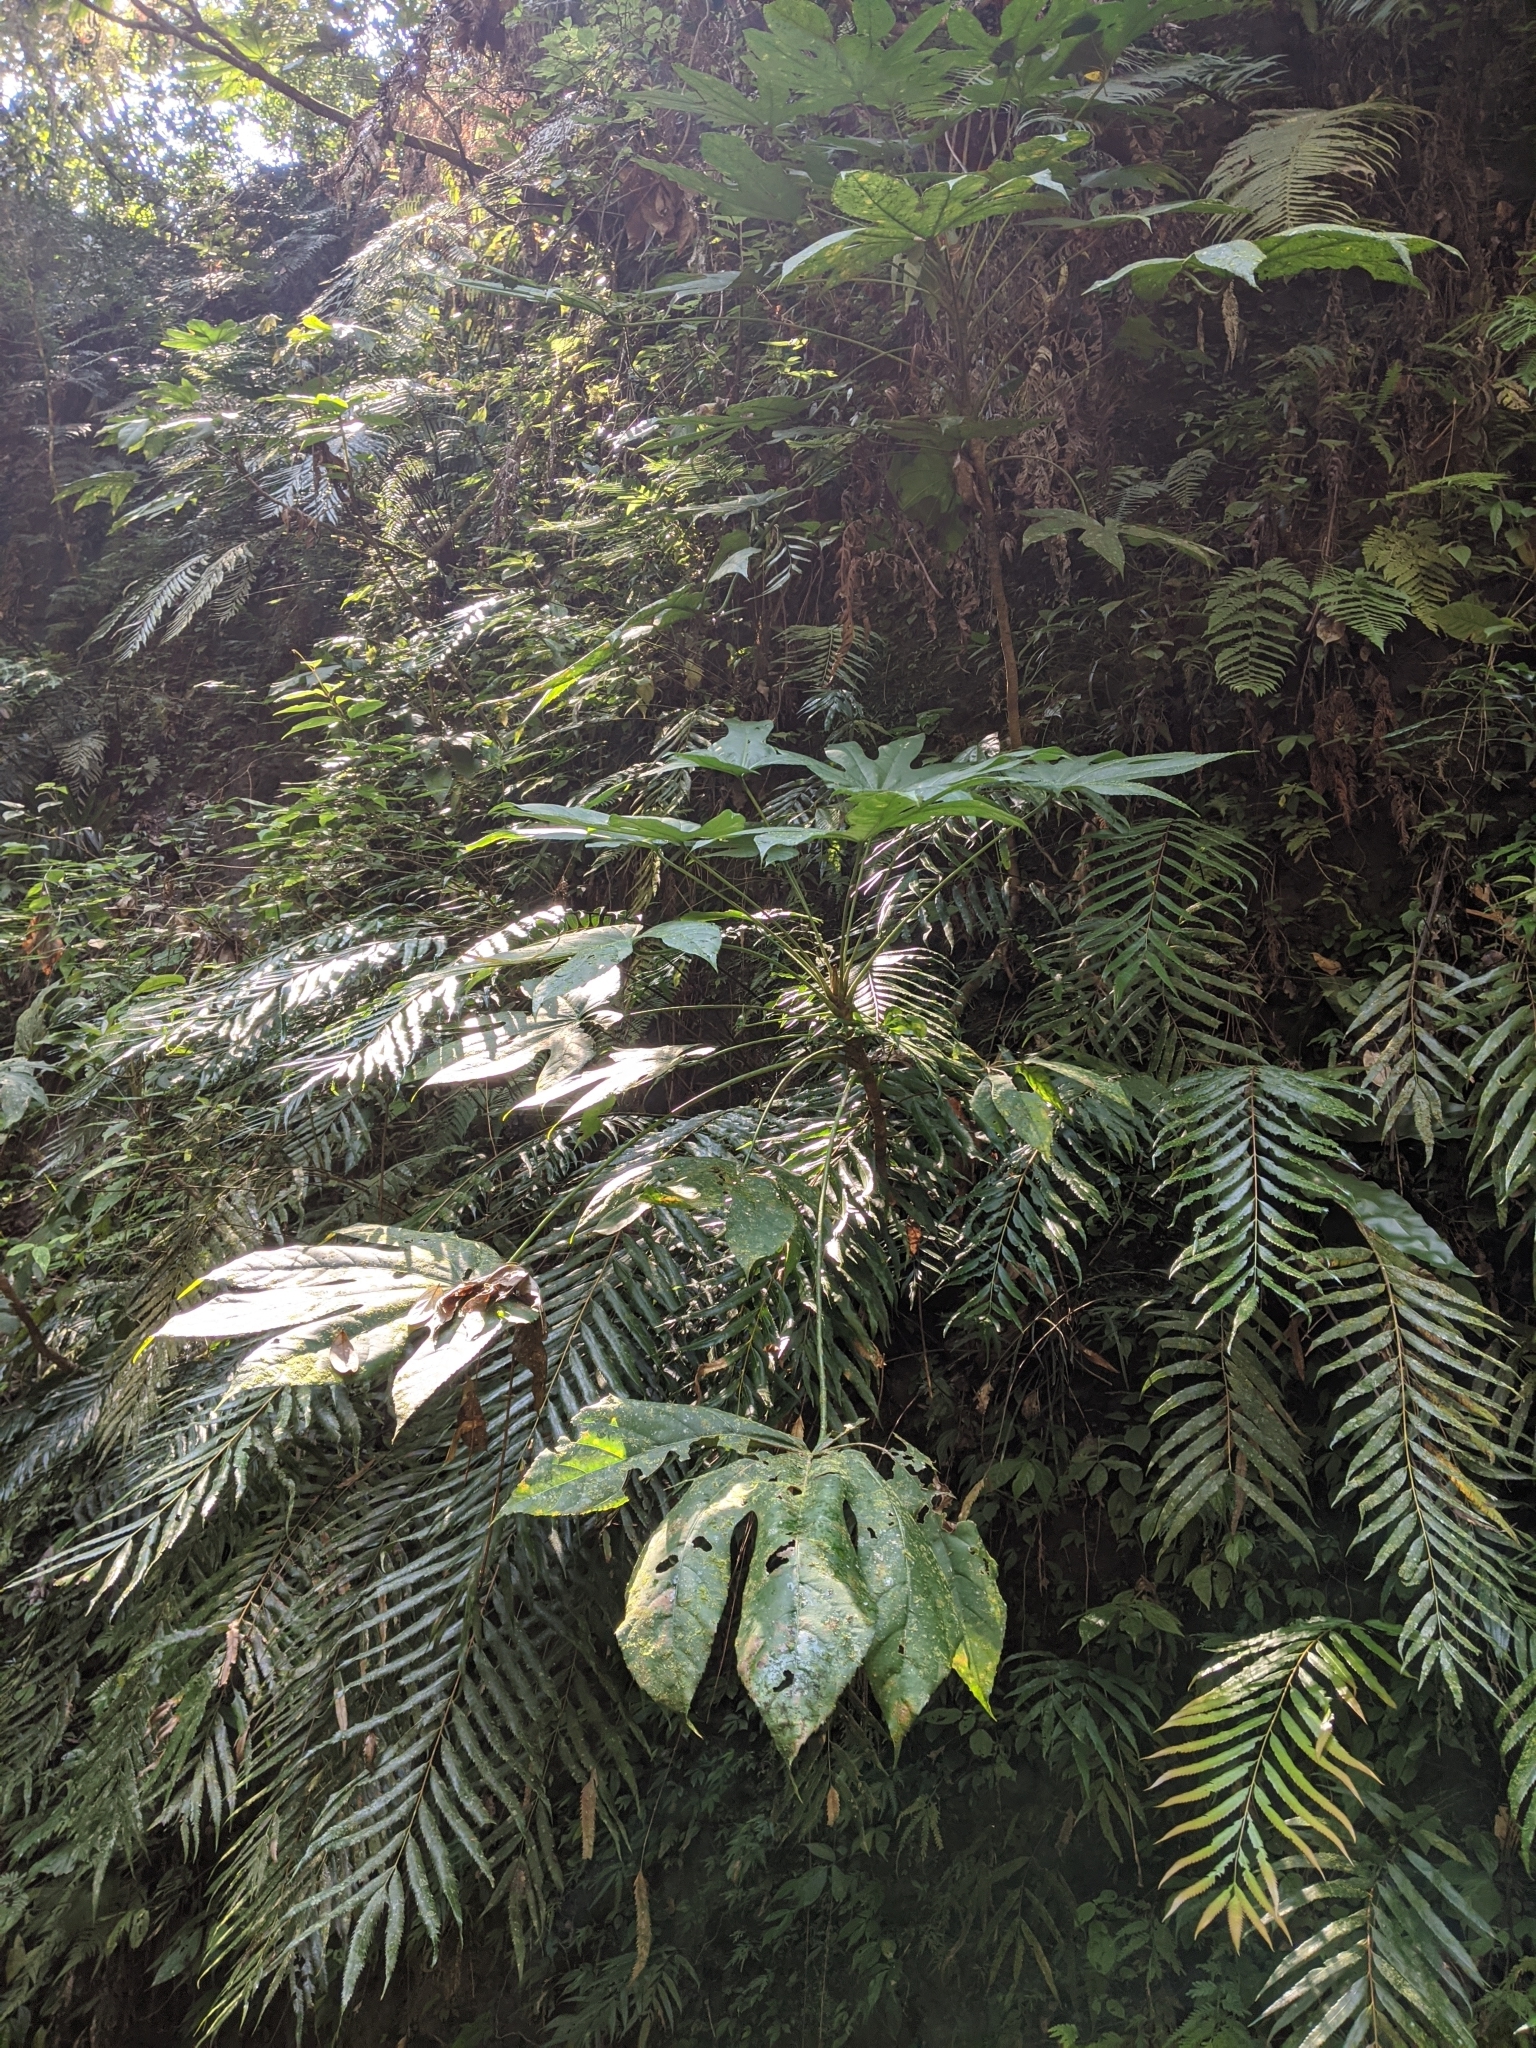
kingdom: Plantae
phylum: Tracheophyta
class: Magnoliopsida
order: Apiales
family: Araliaceae
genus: Fatsia
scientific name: Fatsia polycarpa
